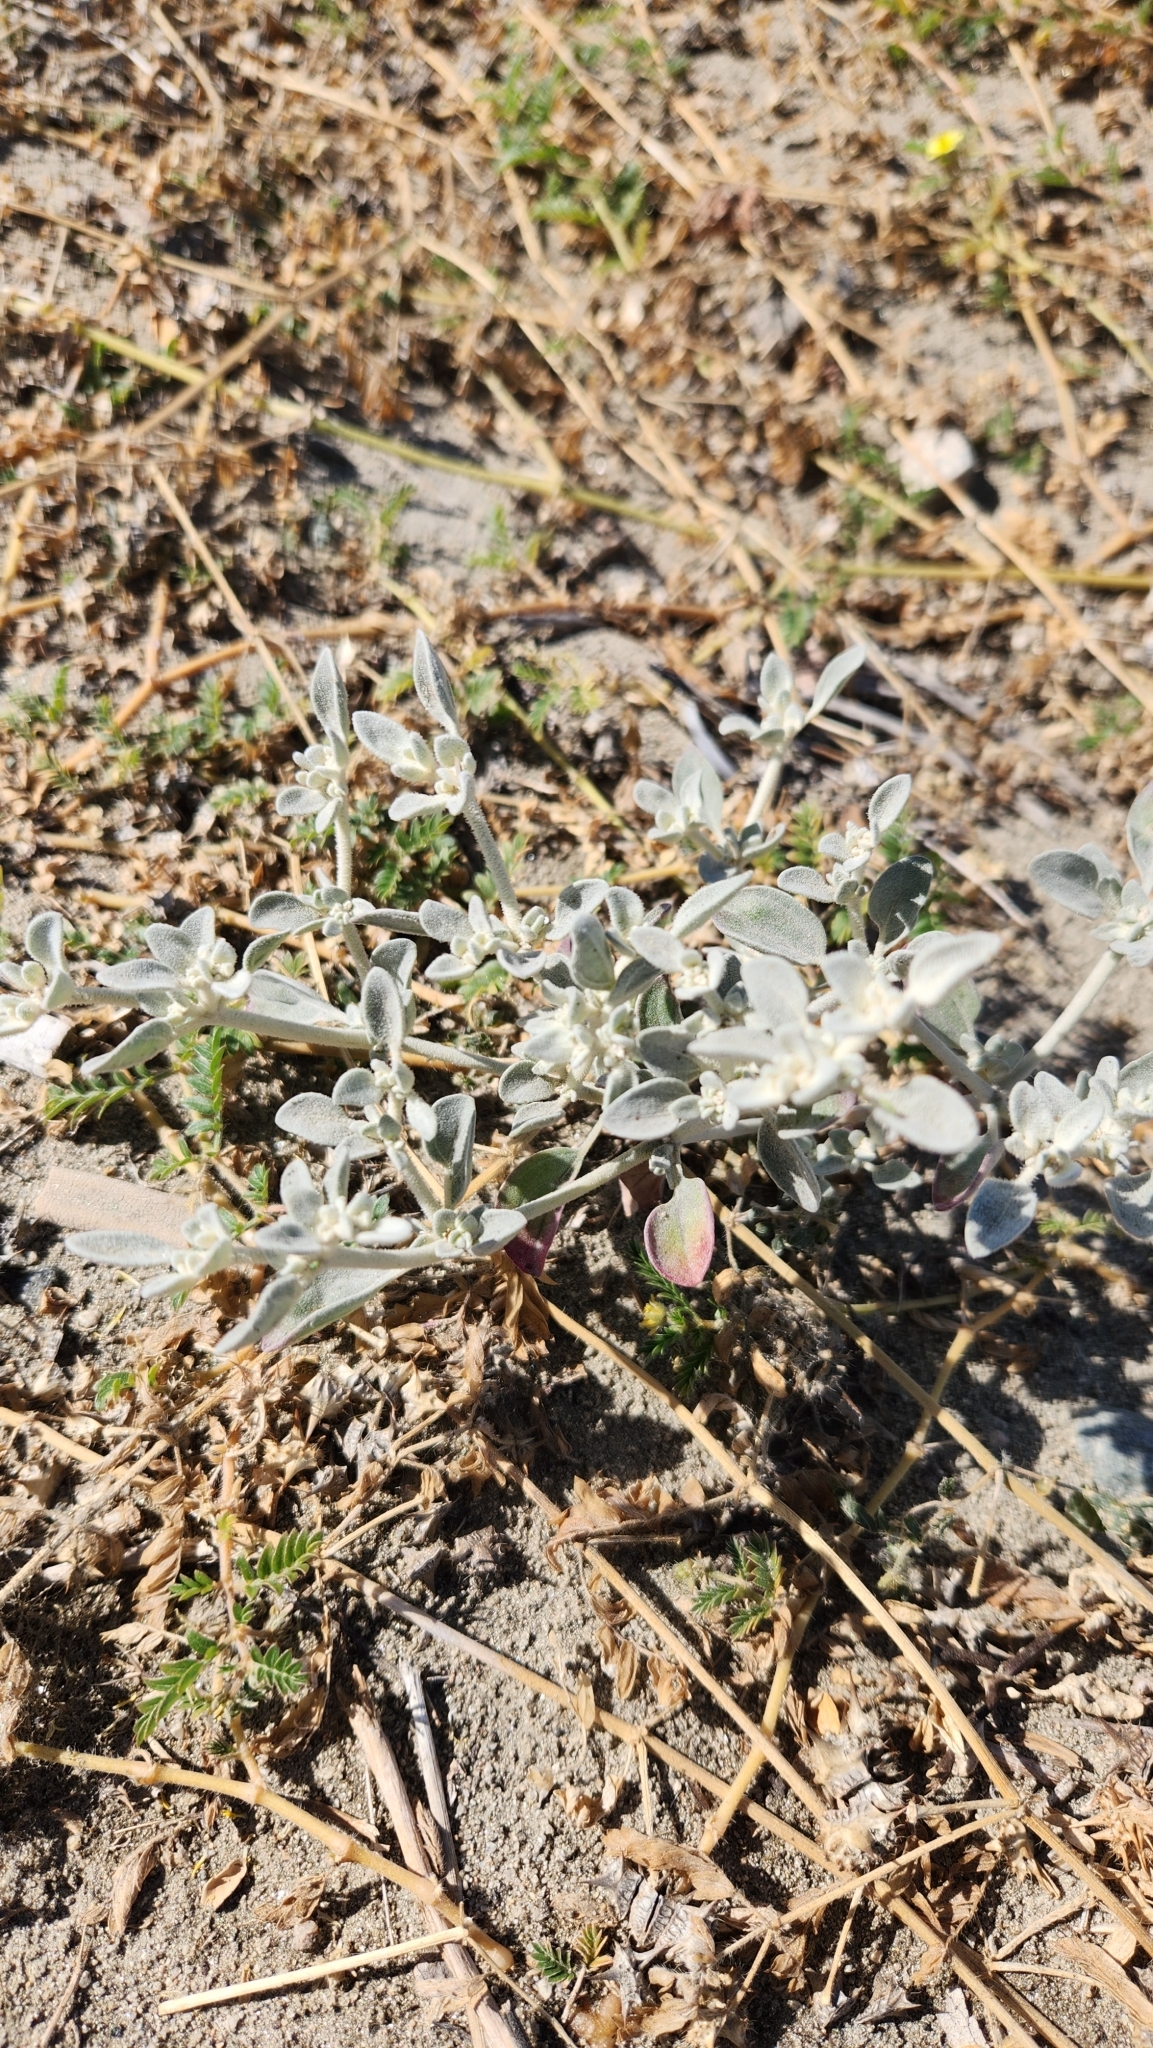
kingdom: Plantae
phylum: Tracheophyta
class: Magnoliopsida
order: Caryophyllales
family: Amaranthaceae
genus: Tidestromia
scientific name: Tidestromia suffruticosa
